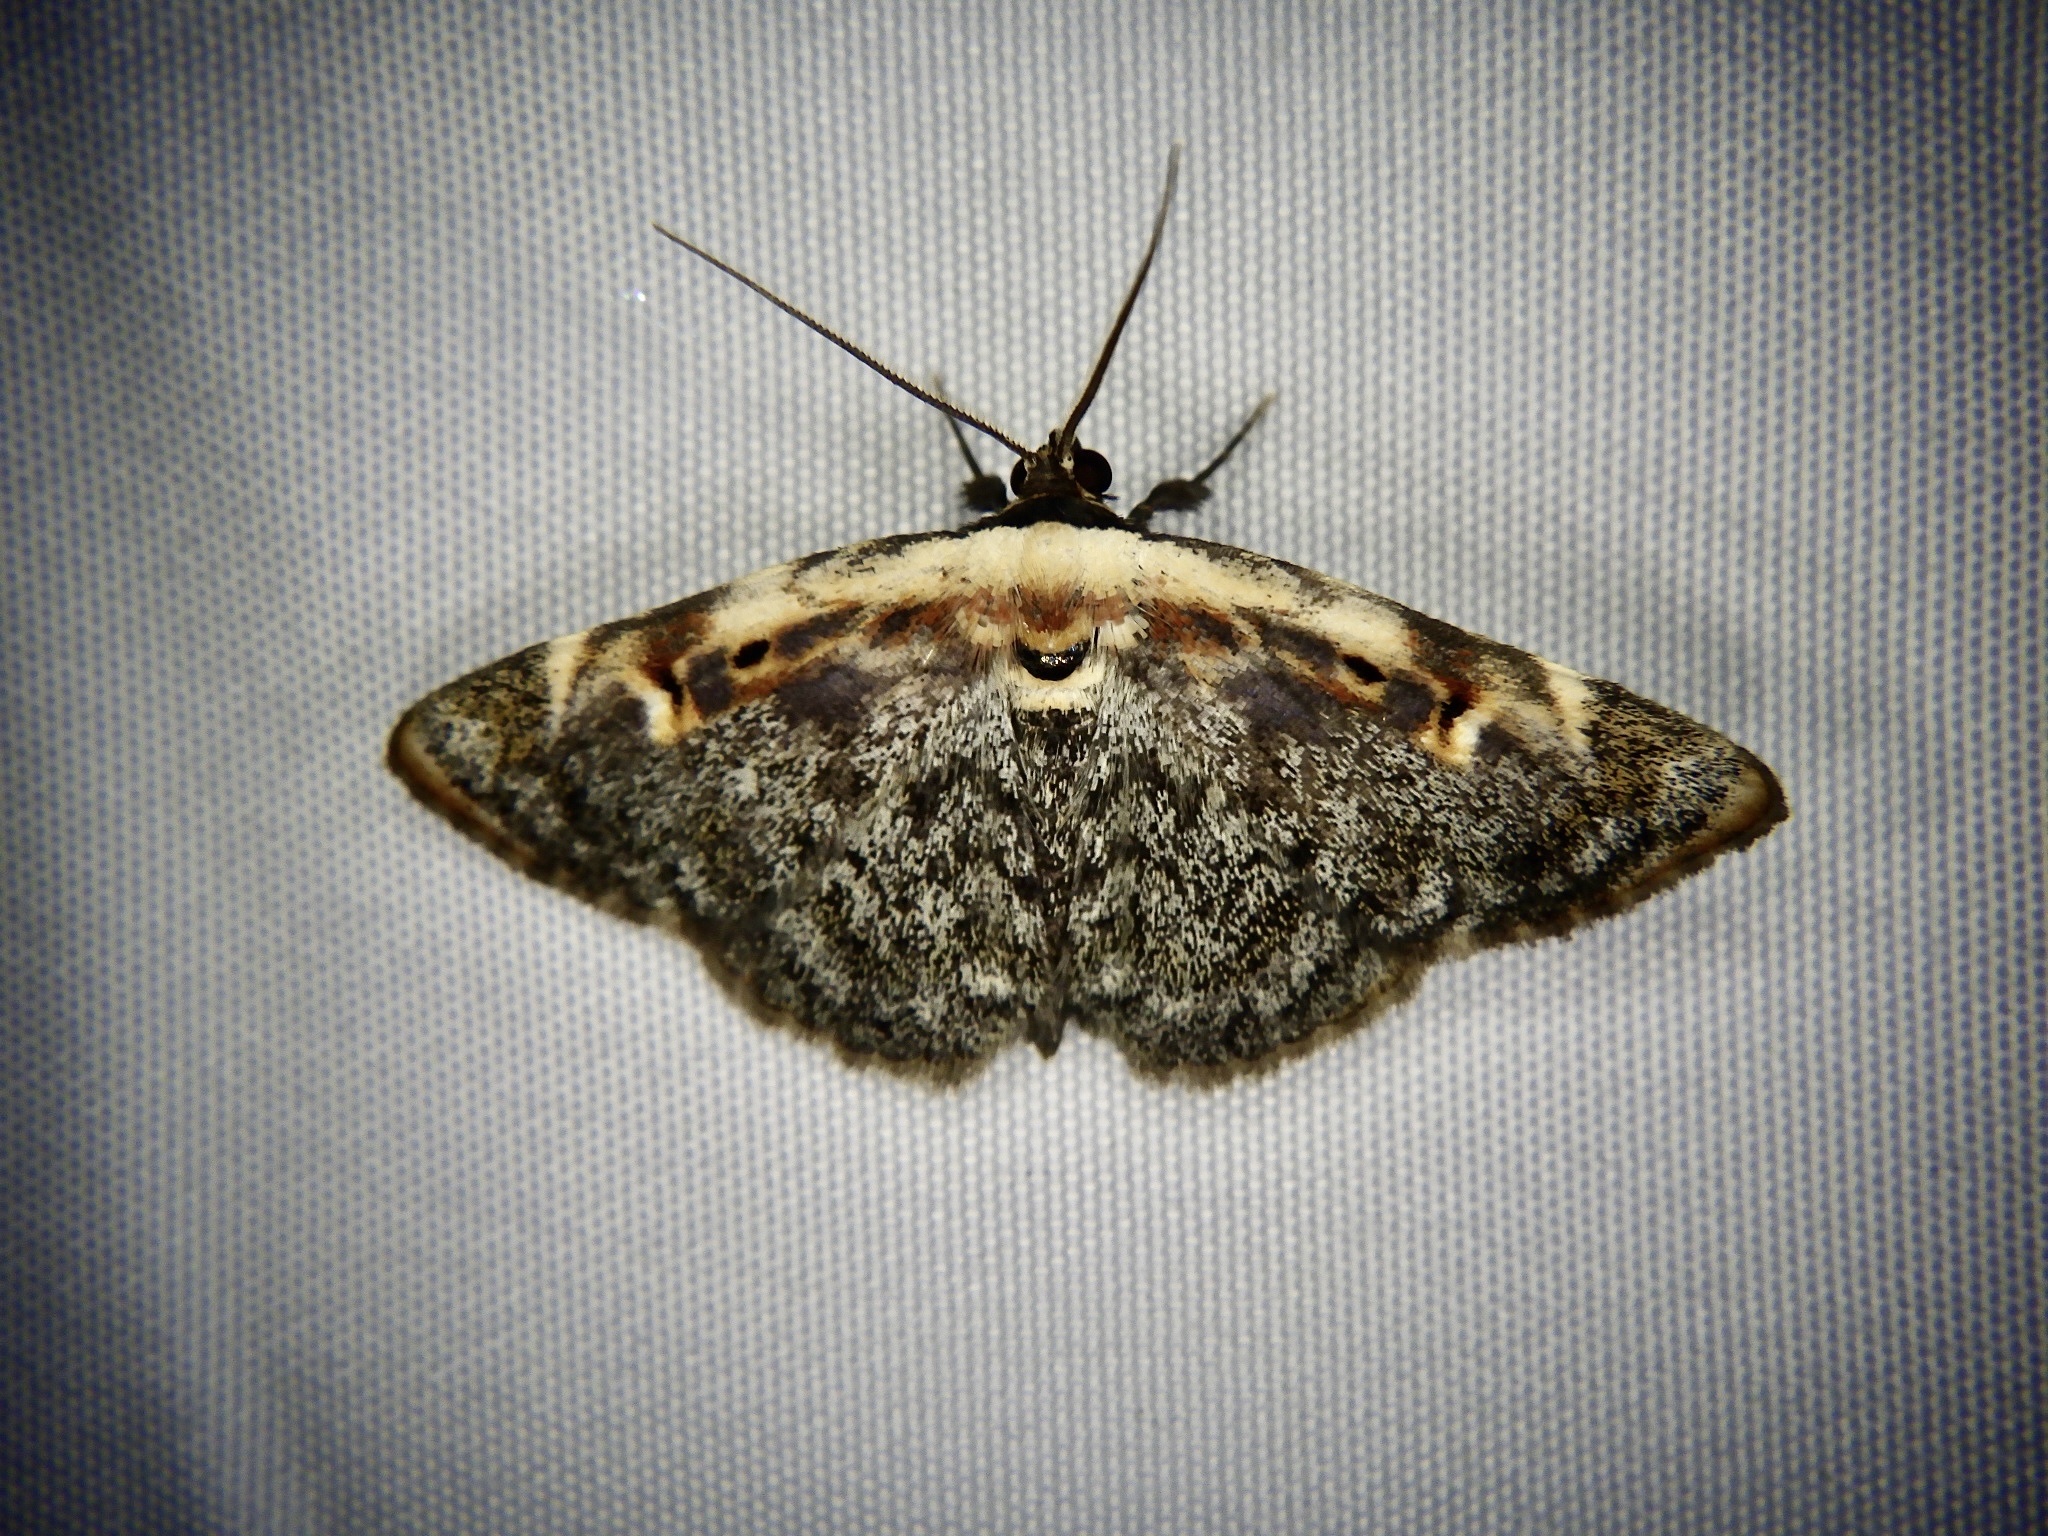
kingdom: Animalia
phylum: Arthropoda
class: Insecta
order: Lepidoptera
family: Erebidae
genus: Hypostrotia
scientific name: Hypostrotia cinerea
